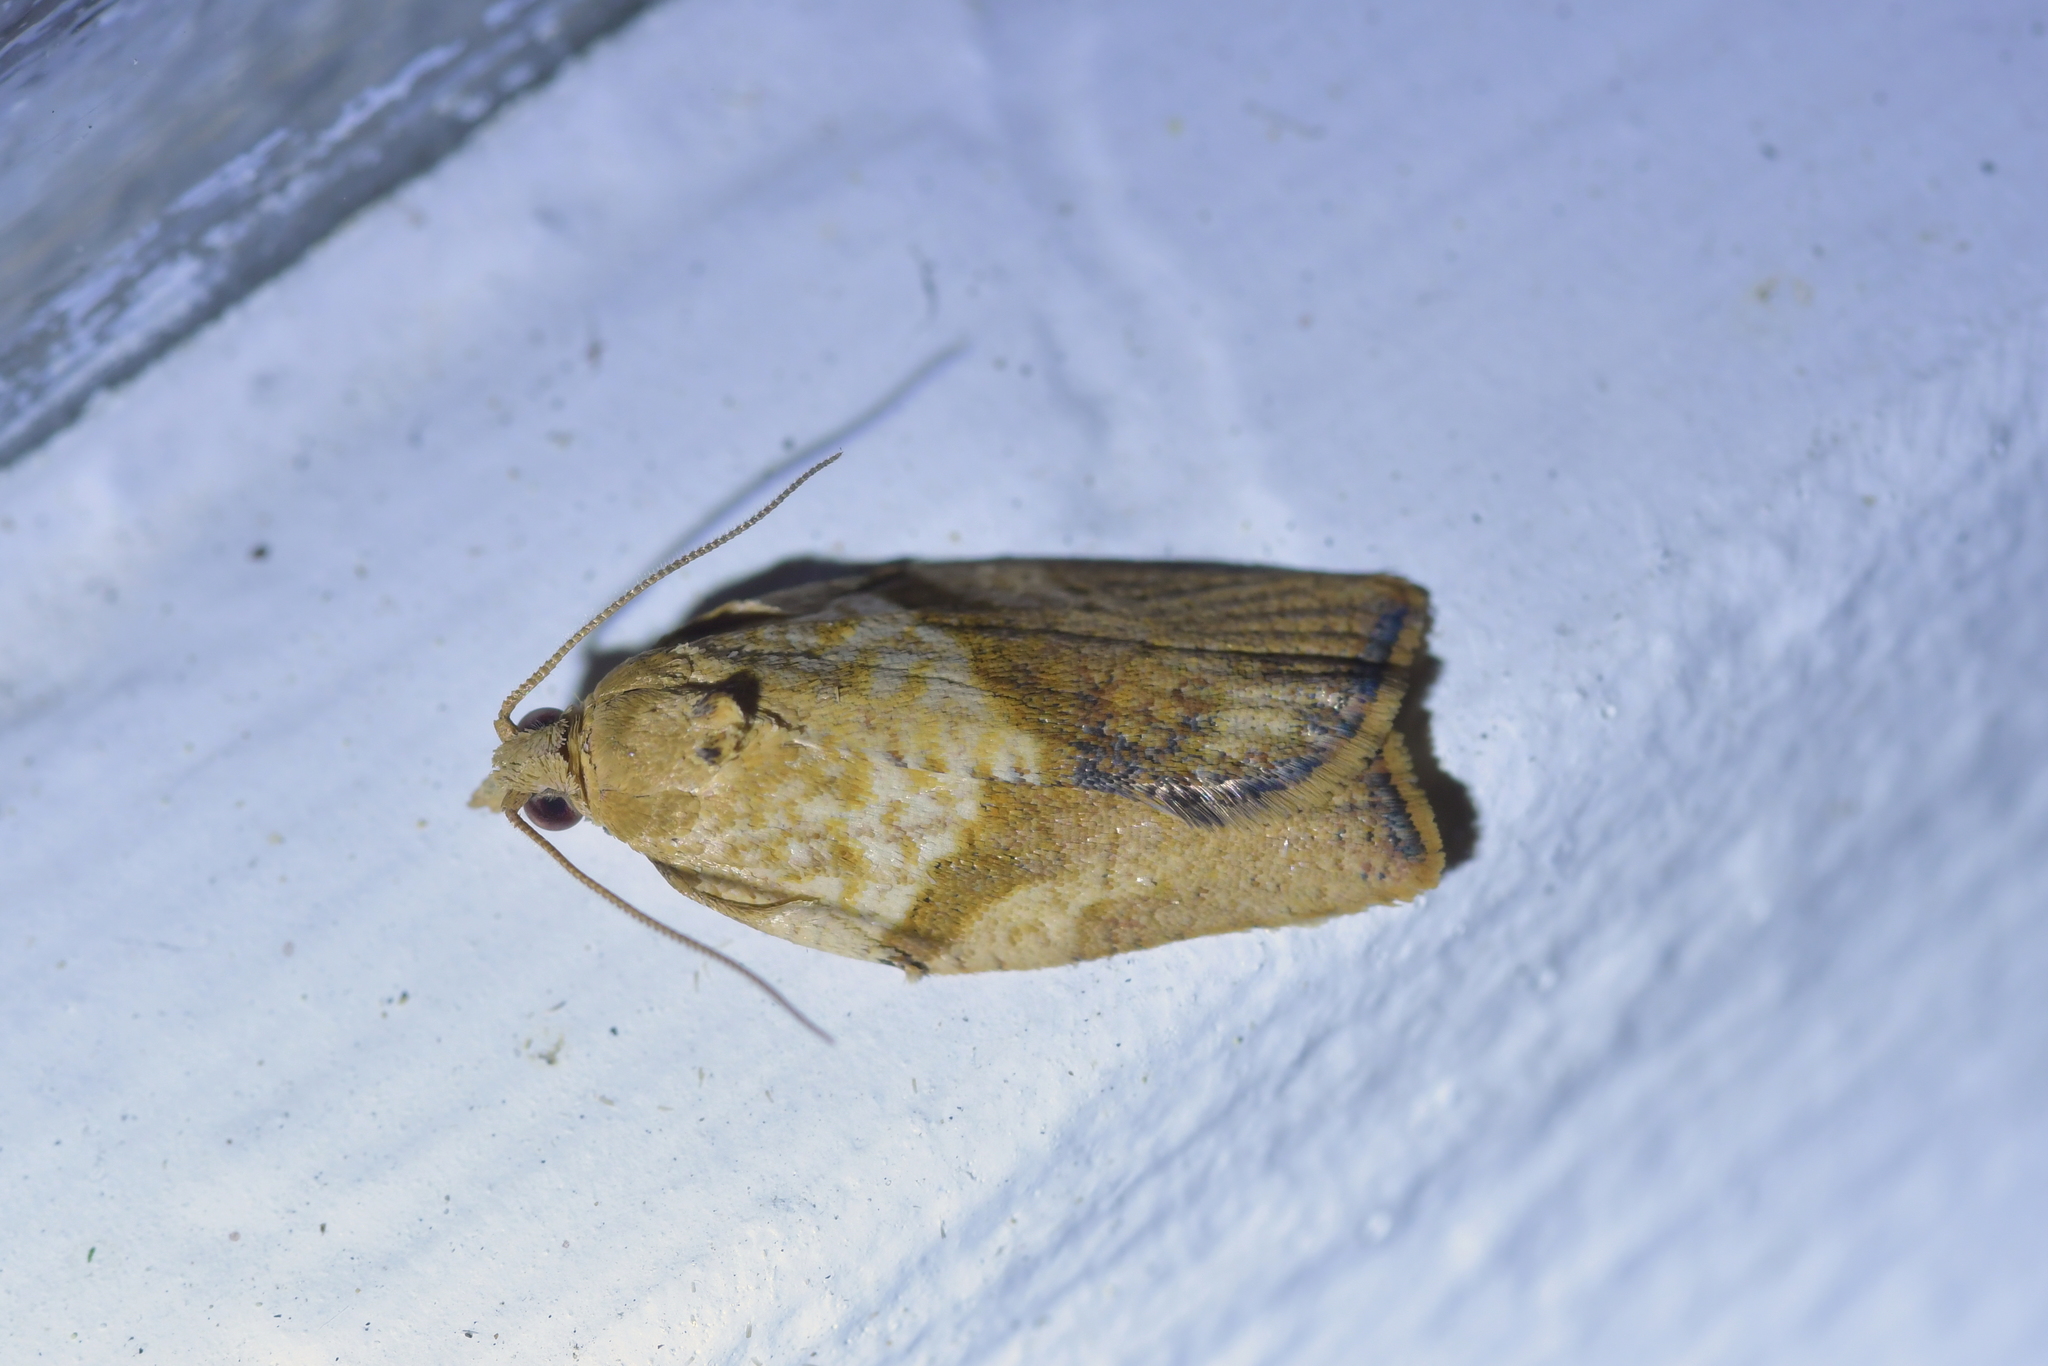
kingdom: Animalia
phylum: Arthropoda
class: Insecta
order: Lepidoptera
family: Tortricidae
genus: Epiphyas
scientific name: Epiphyas postvittana
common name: Light brown apple moth
